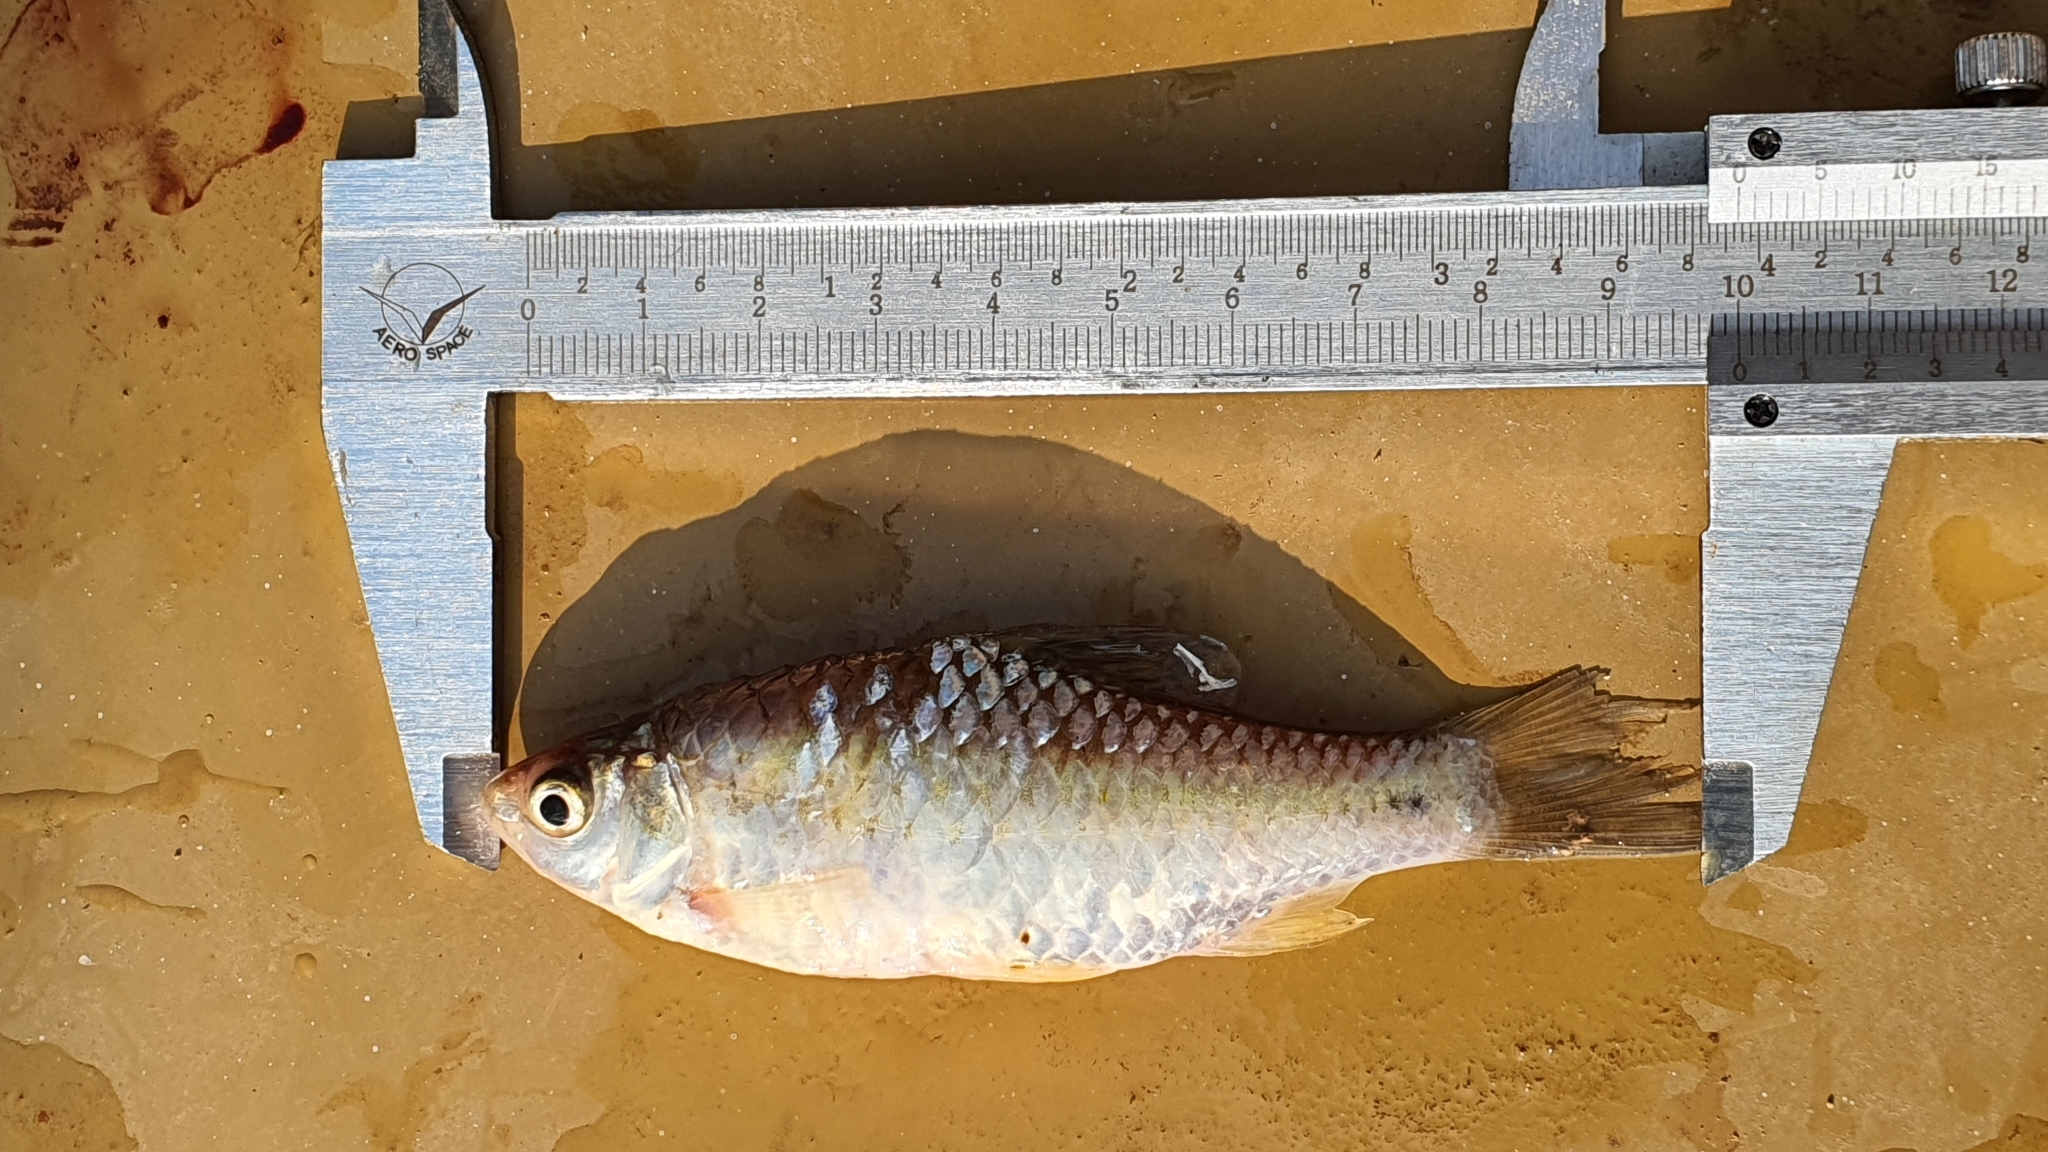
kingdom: Animalia
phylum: Chordata
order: Cypriniformes
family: Cyprinidae
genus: Puntius
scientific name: Puntius sophore
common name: Pool barb
